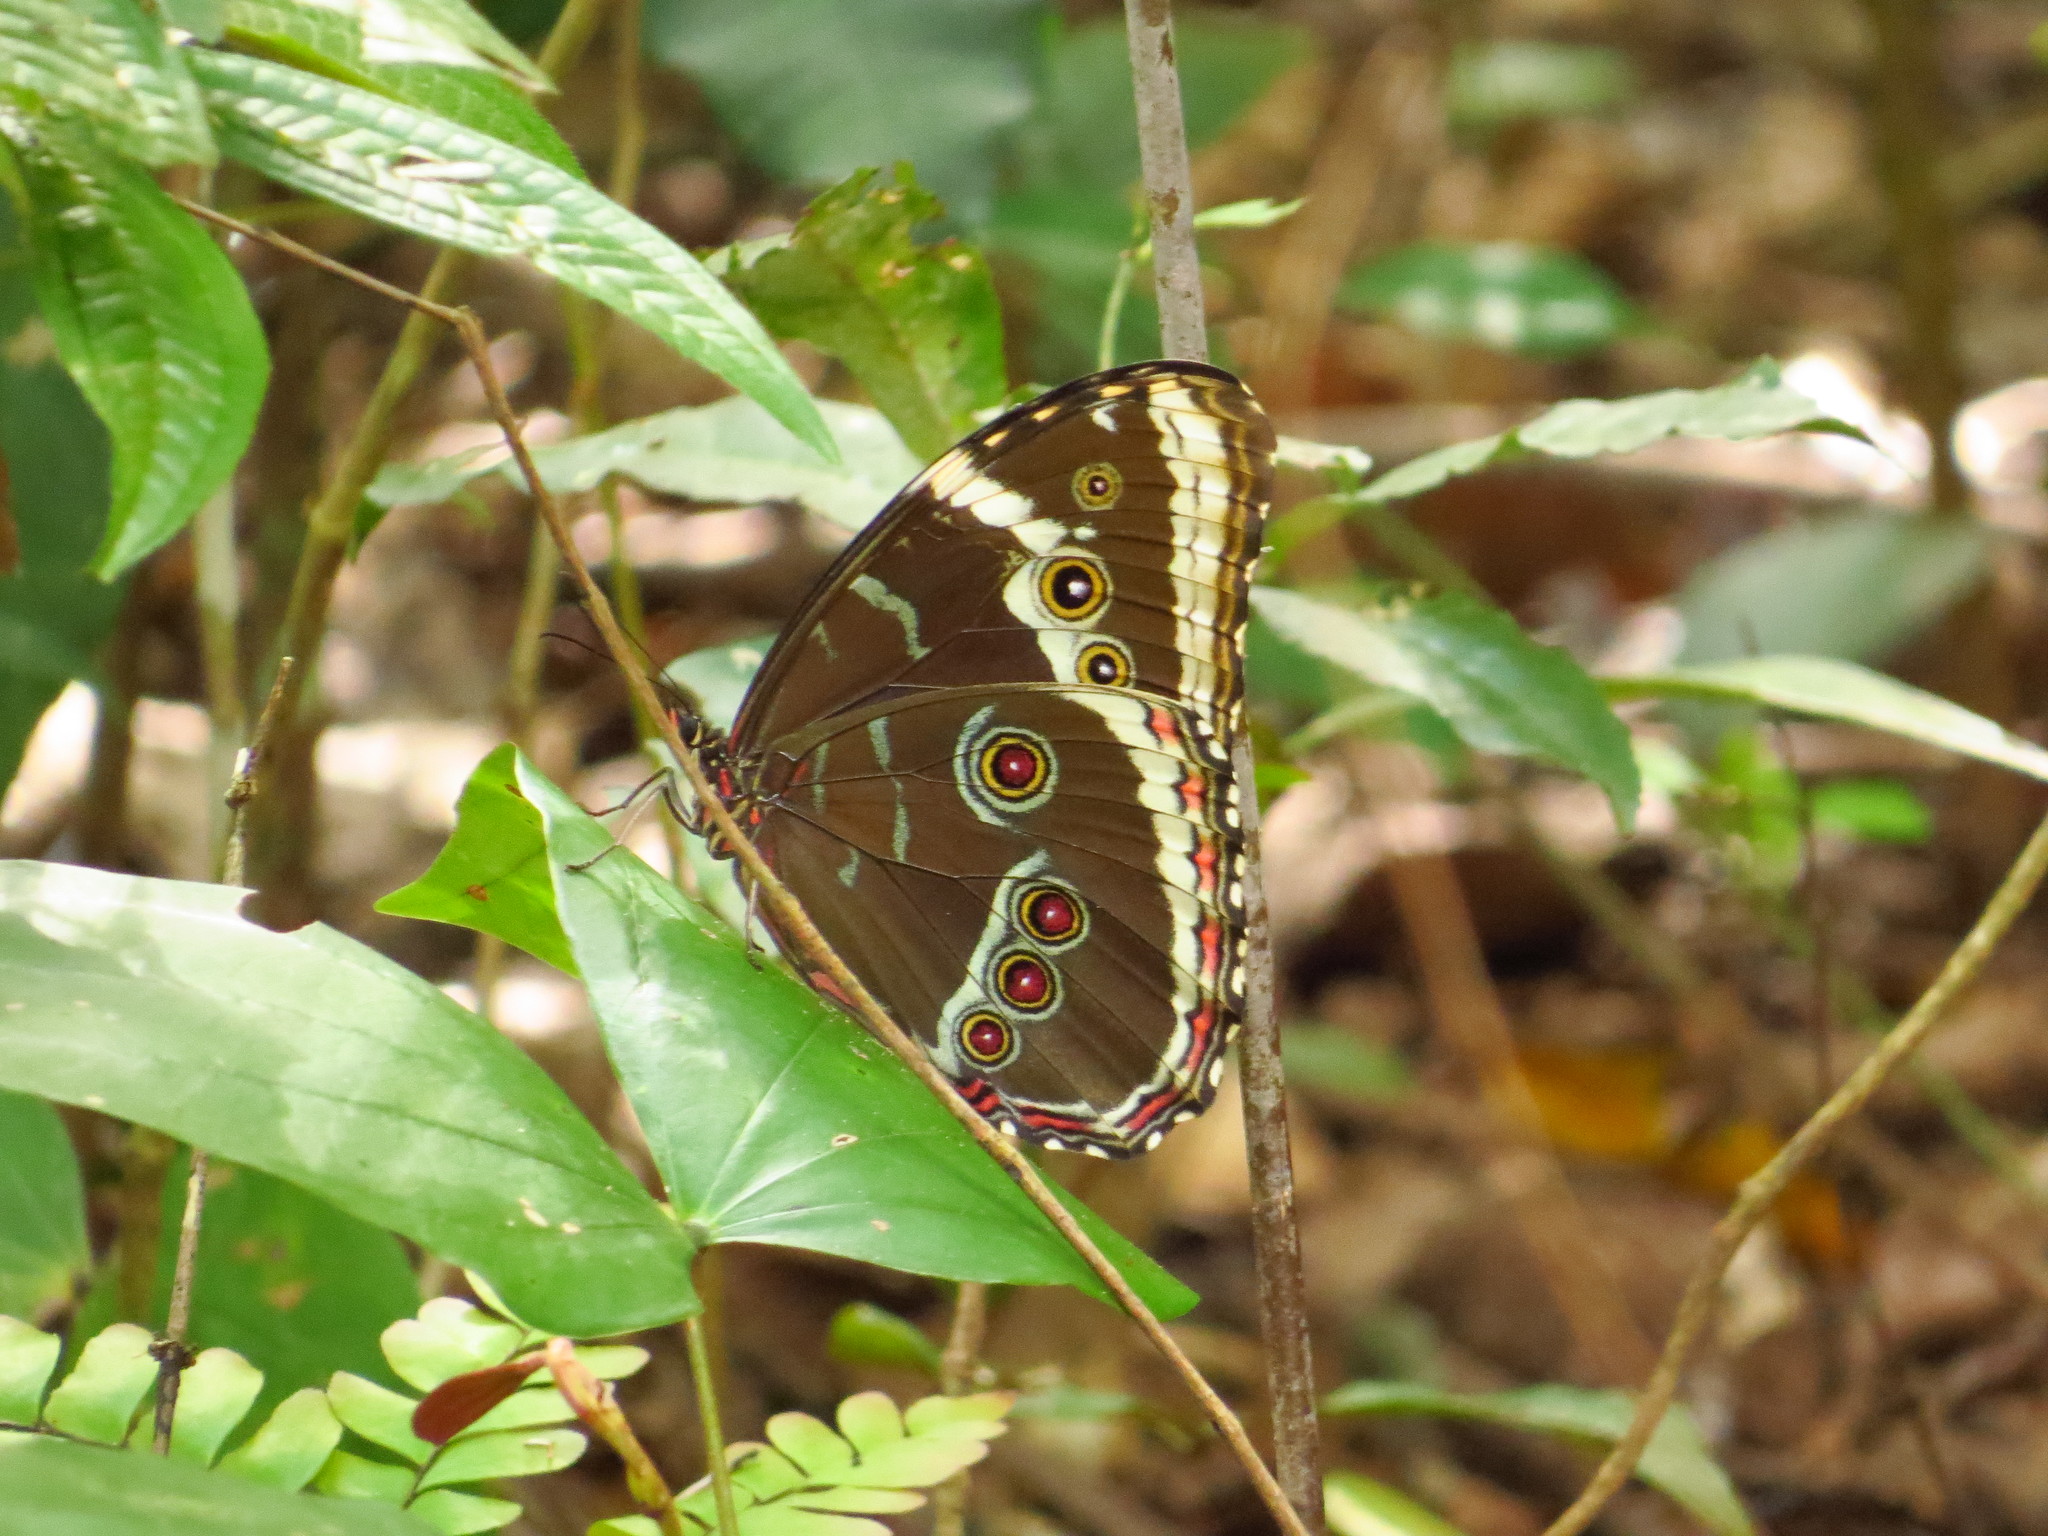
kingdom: Animalia
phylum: Arthropoda
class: Insecta
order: Lepidoptera
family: Nymphalidae
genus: Morpho
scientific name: Morpho helenor
